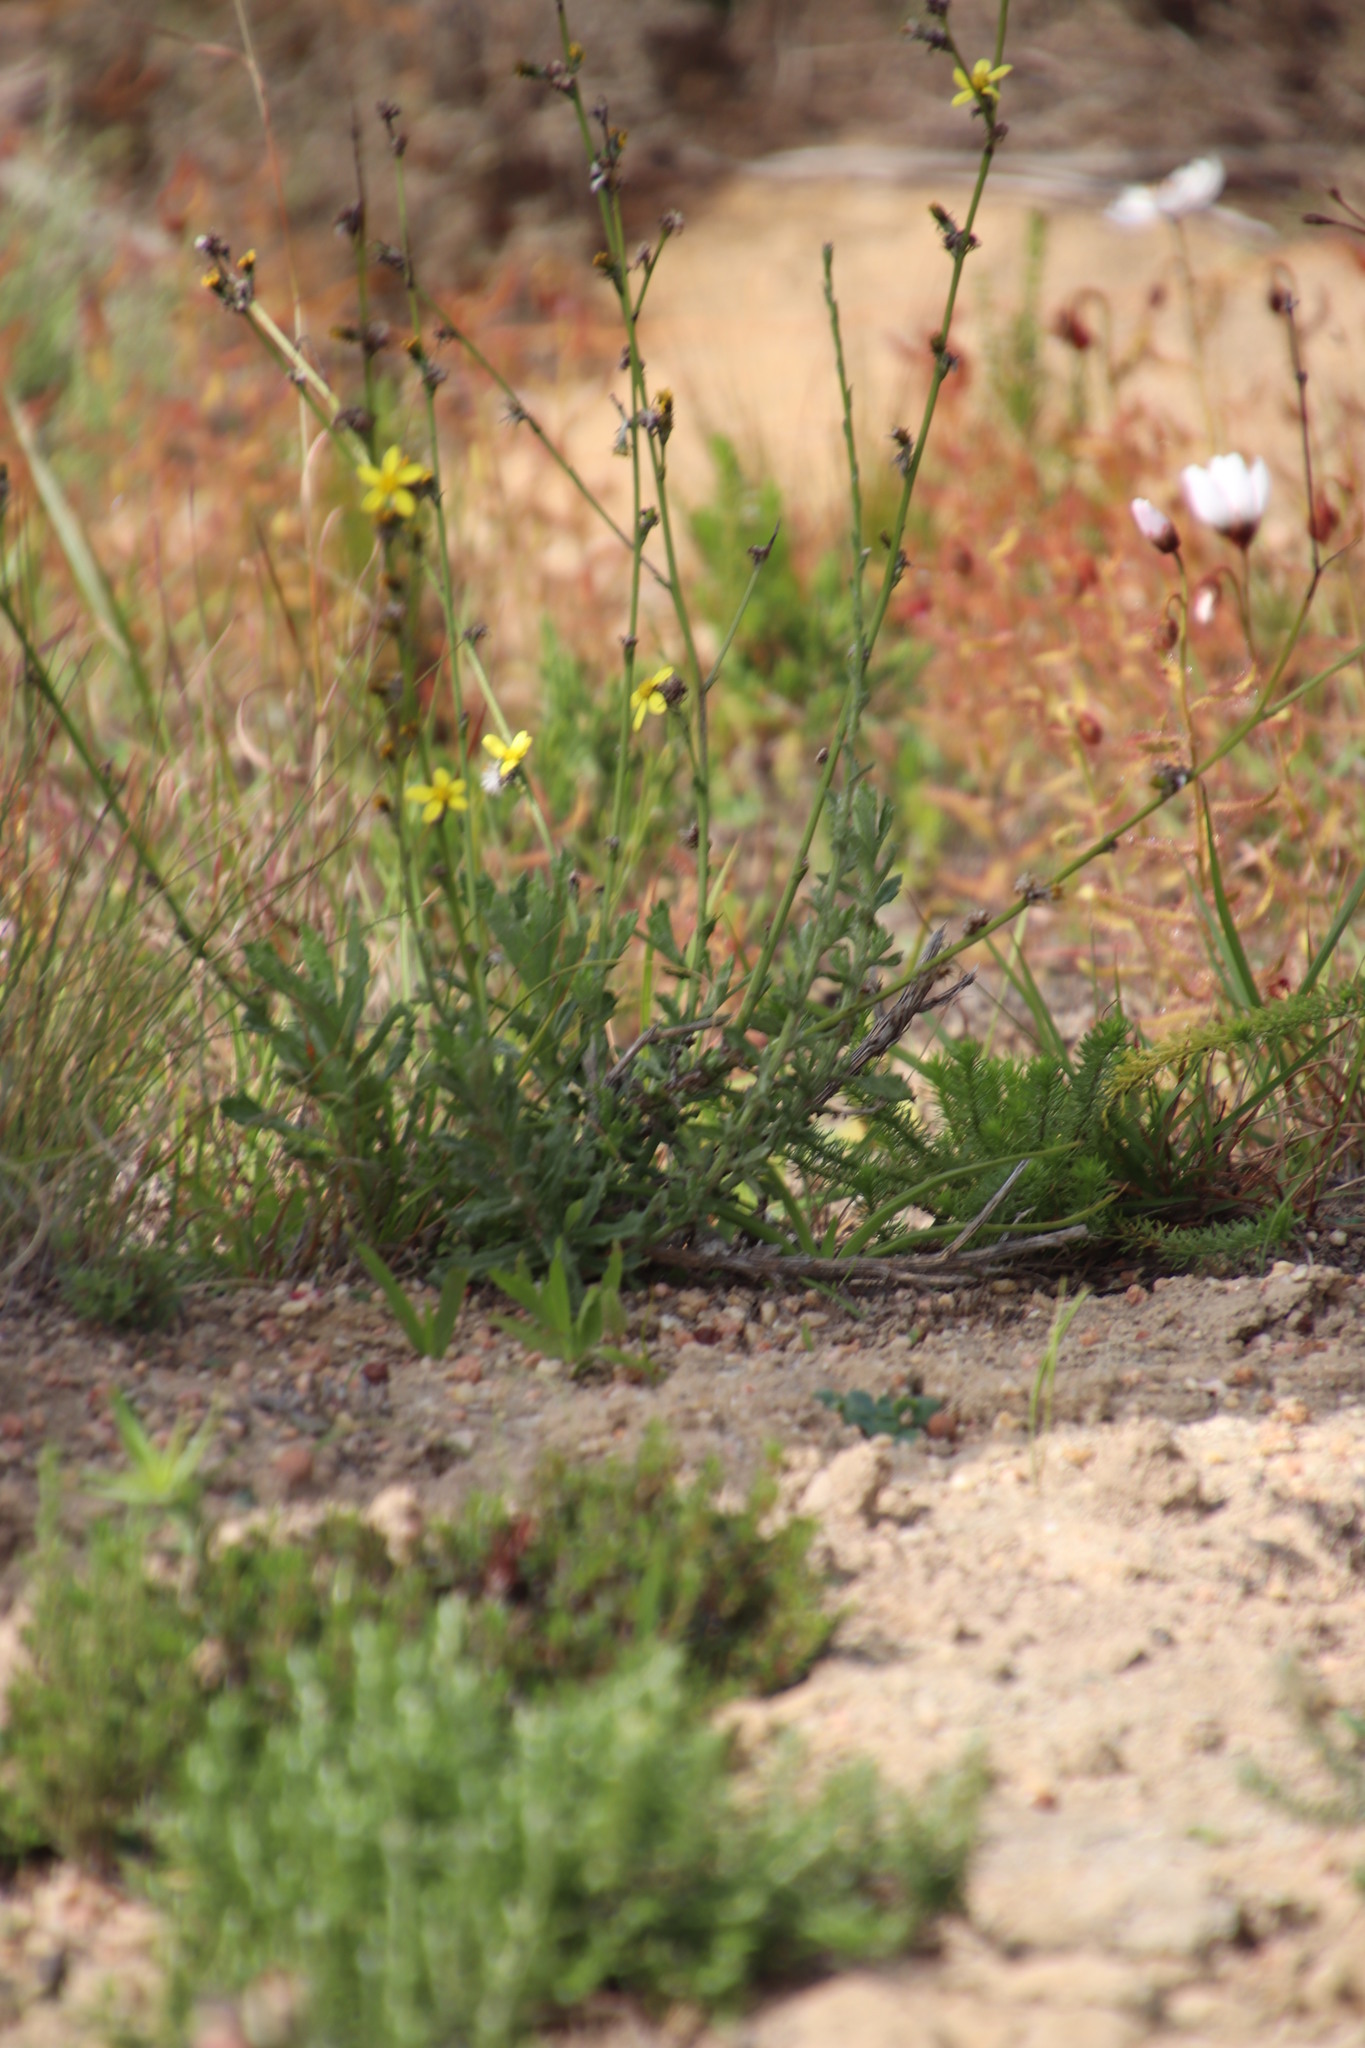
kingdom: Plantae
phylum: Tracheophyta
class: Magnoliopsida
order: Asterales
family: Asteraceae
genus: Senecio
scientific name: Senecio pubigerus
